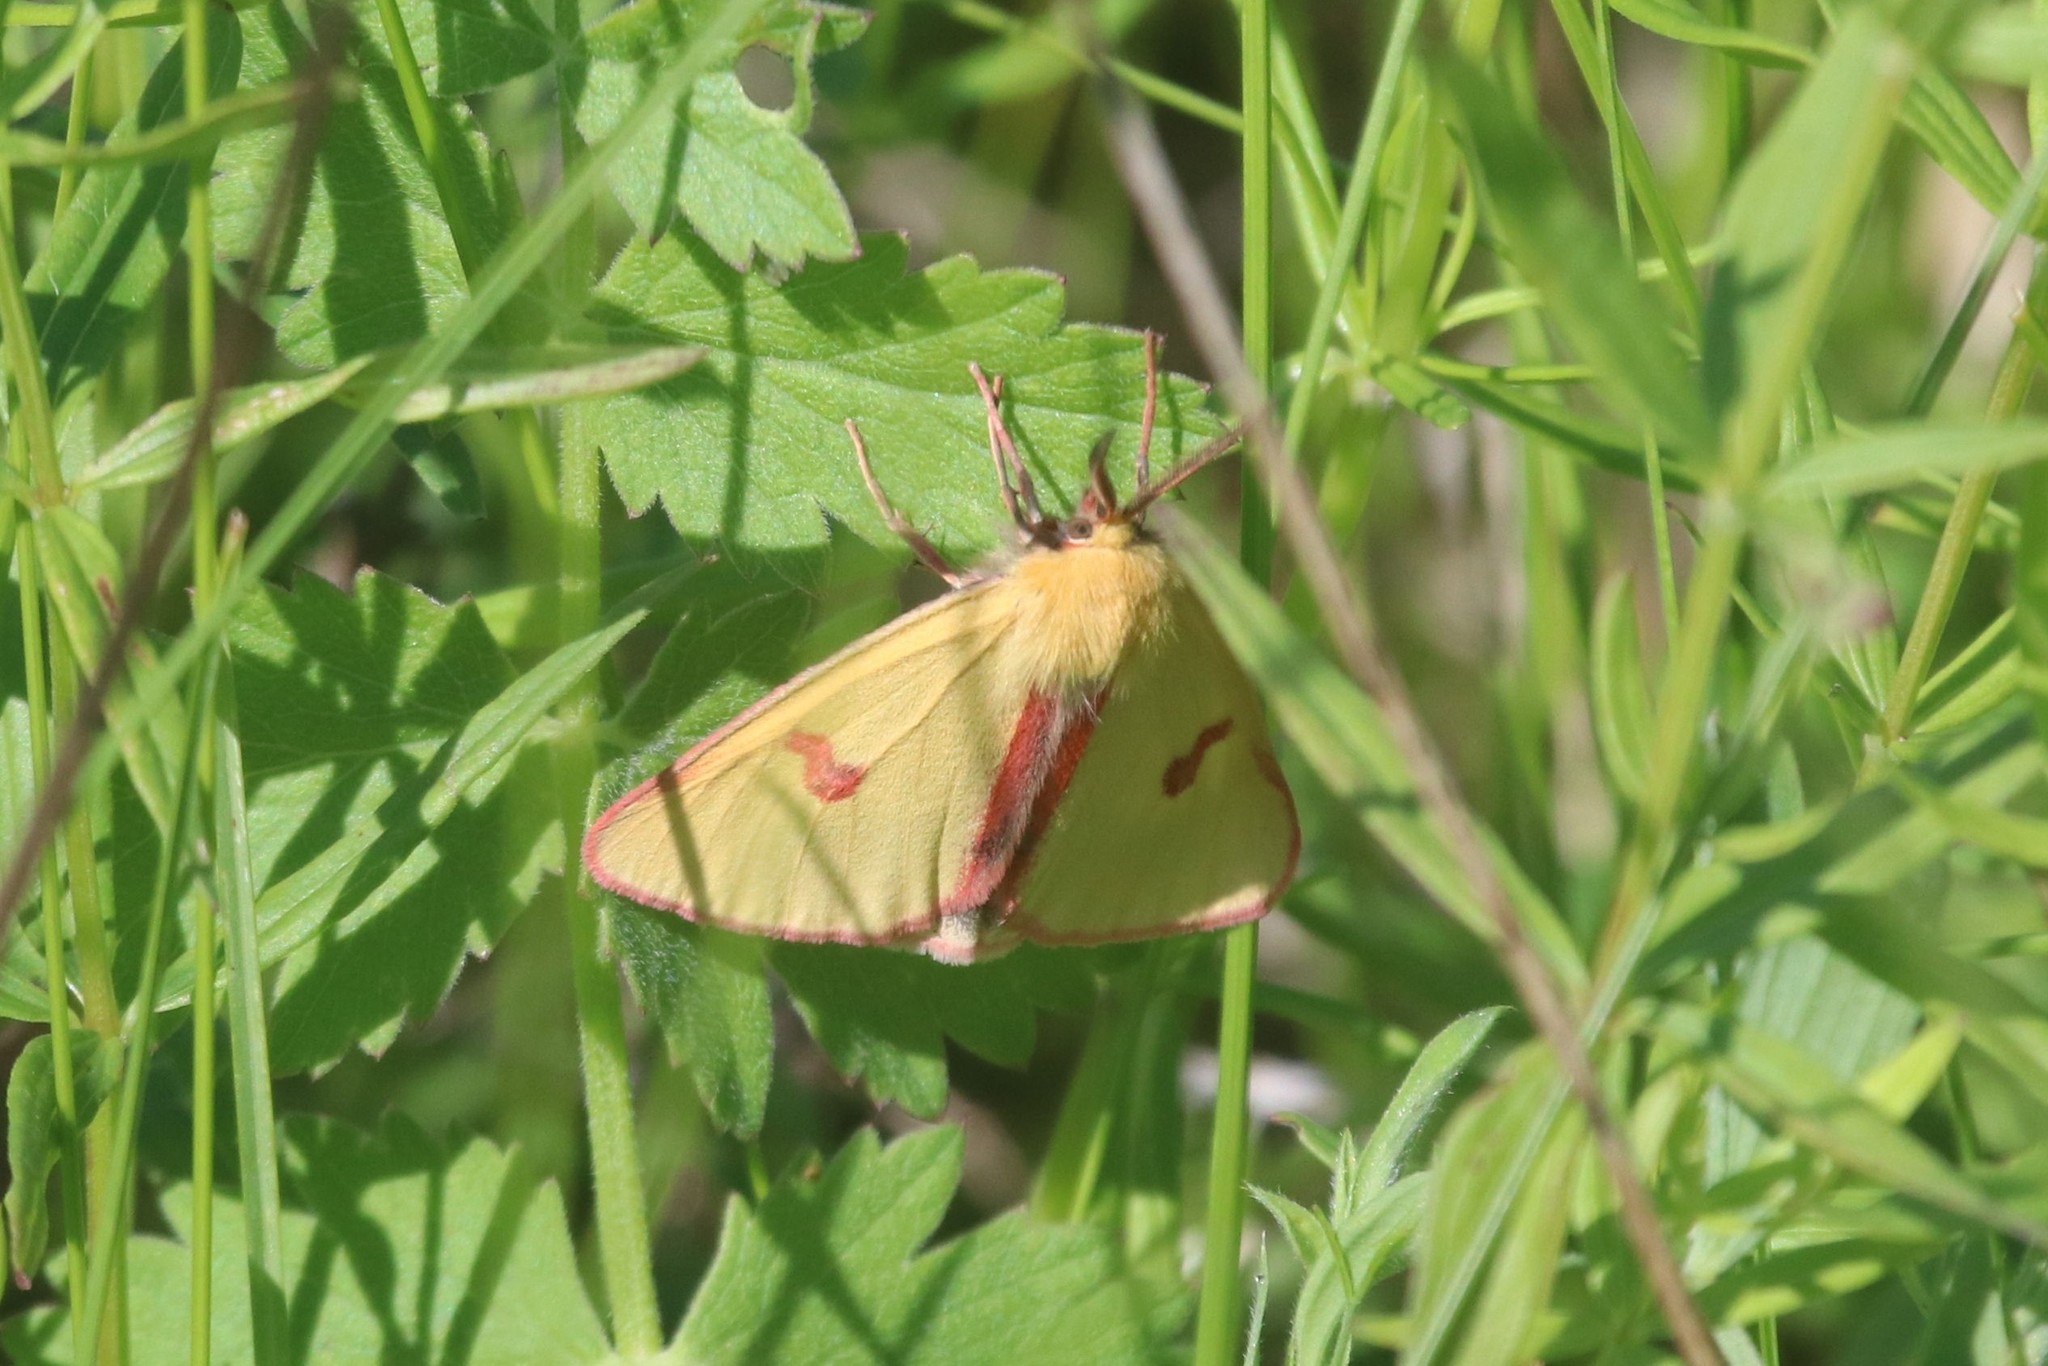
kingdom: Animalia
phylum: Arthropoda
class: Insecta
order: Lepidoptera
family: Erebidae
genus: Diacrisia
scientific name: Diacrisia sannio
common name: Clouded buff
